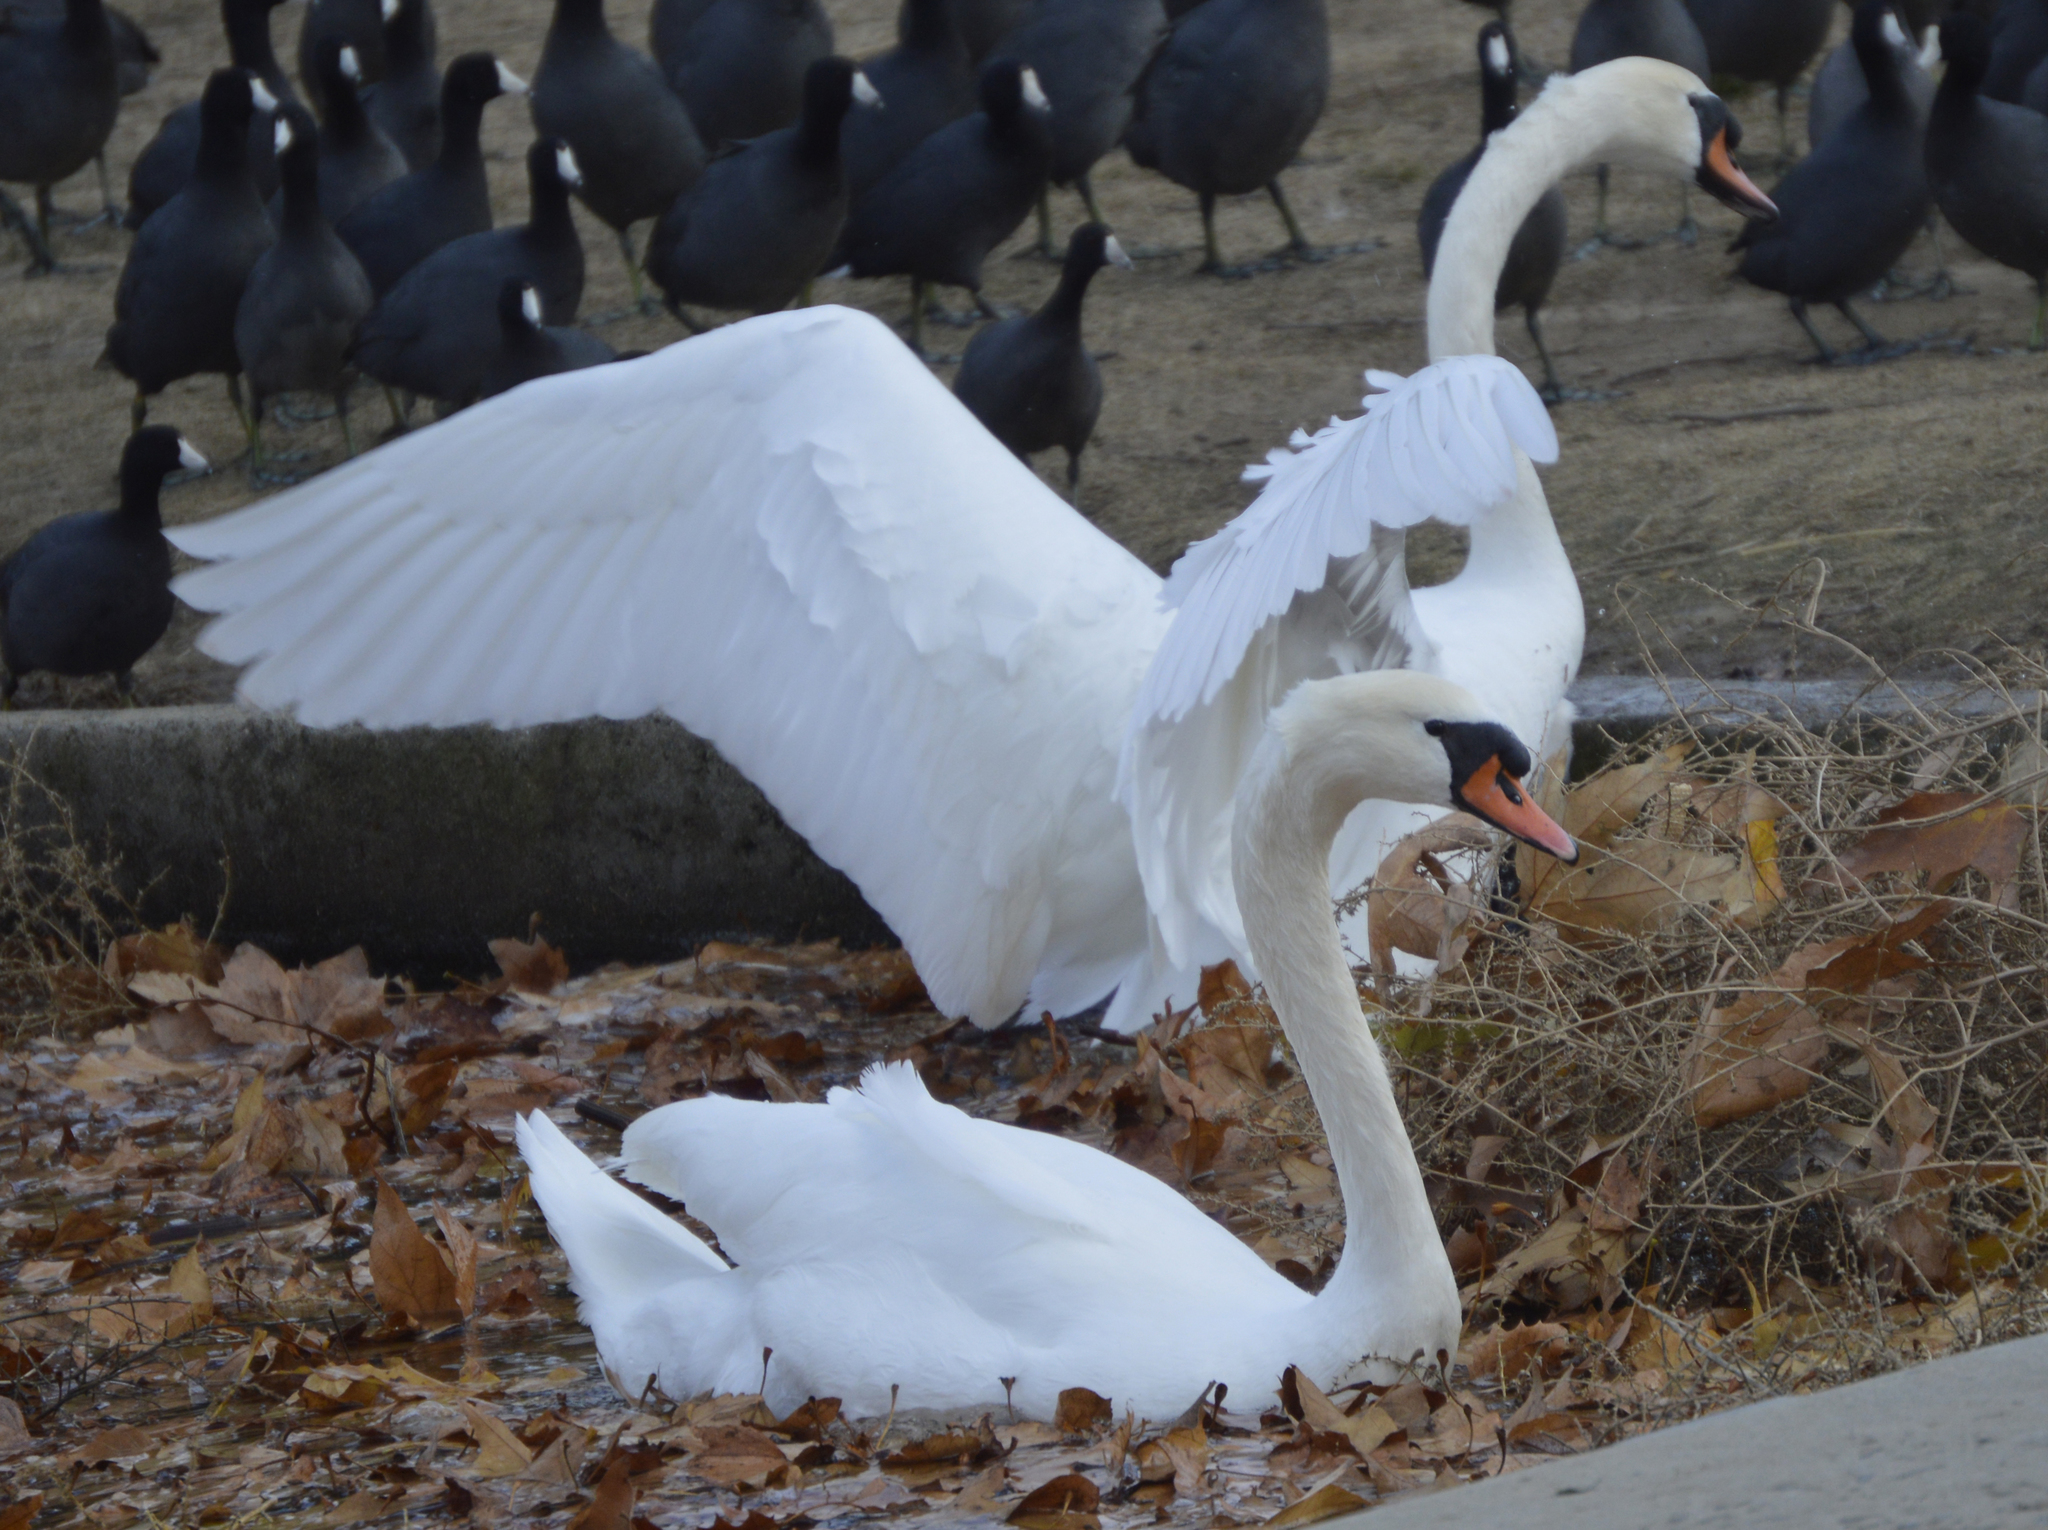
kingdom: Animalia
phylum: Chordata
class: Aves
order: Anseriformes
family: Anatidae
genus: Cygnus
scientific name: Cygnus olor
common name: Mute swan
